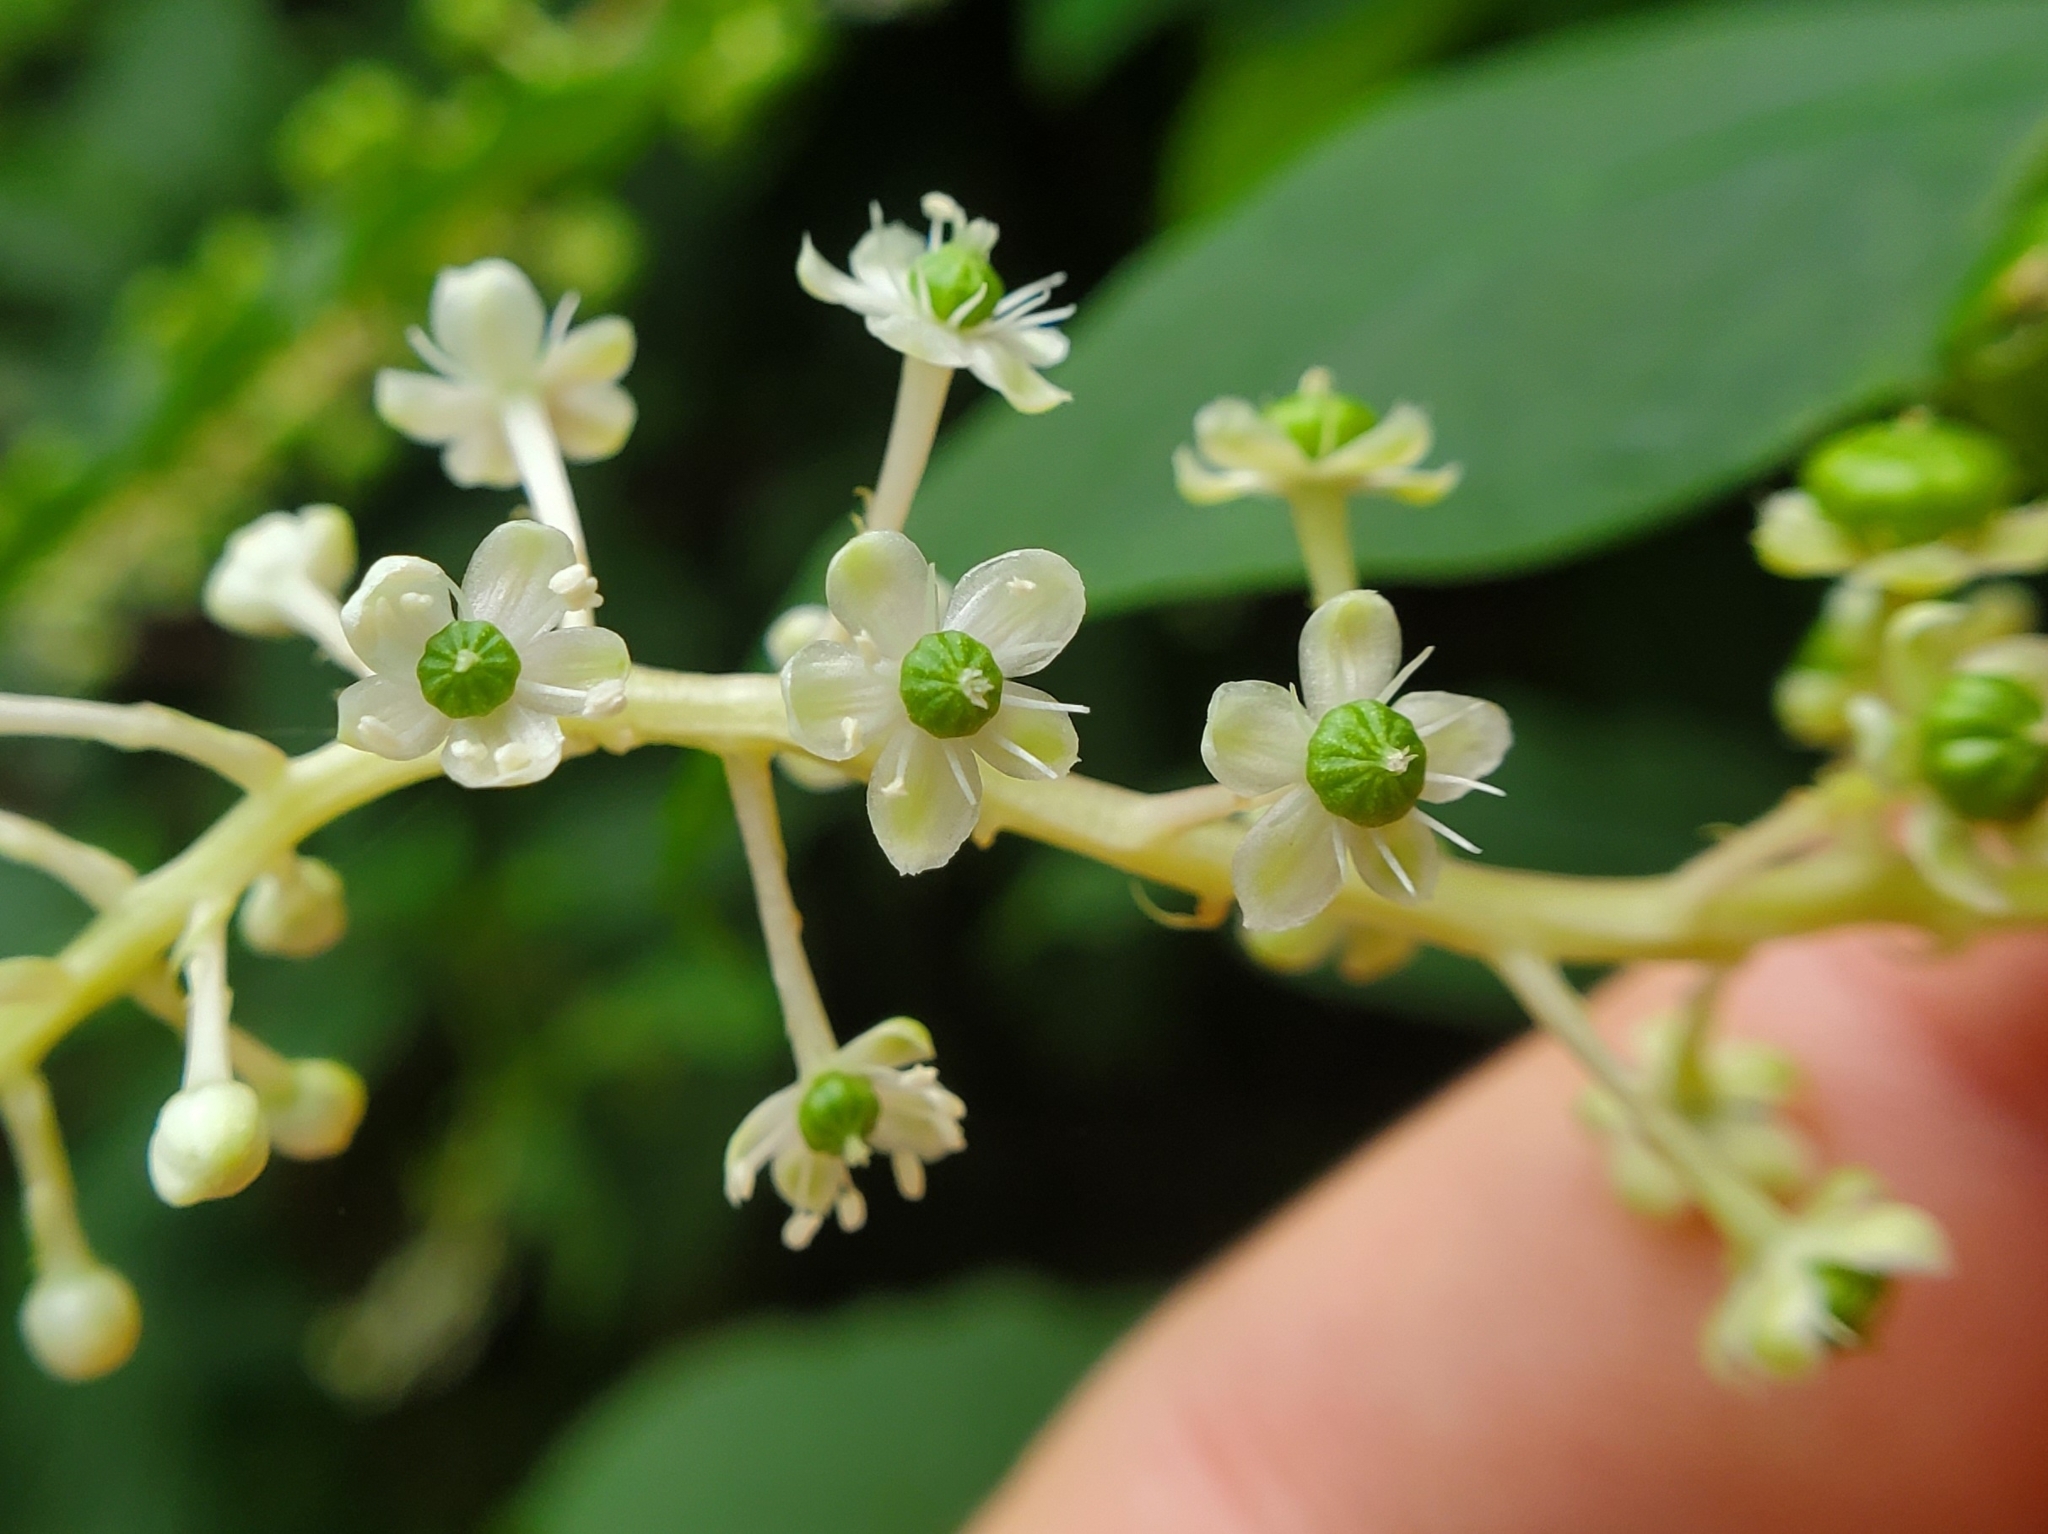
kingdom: Plantae
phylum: Tracheophyta
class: Magnoliopsida
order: Caryophyllales
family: Phytolaccaceae
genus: Phytolacca
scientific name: Phytolacca americana
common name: American pokeweed
